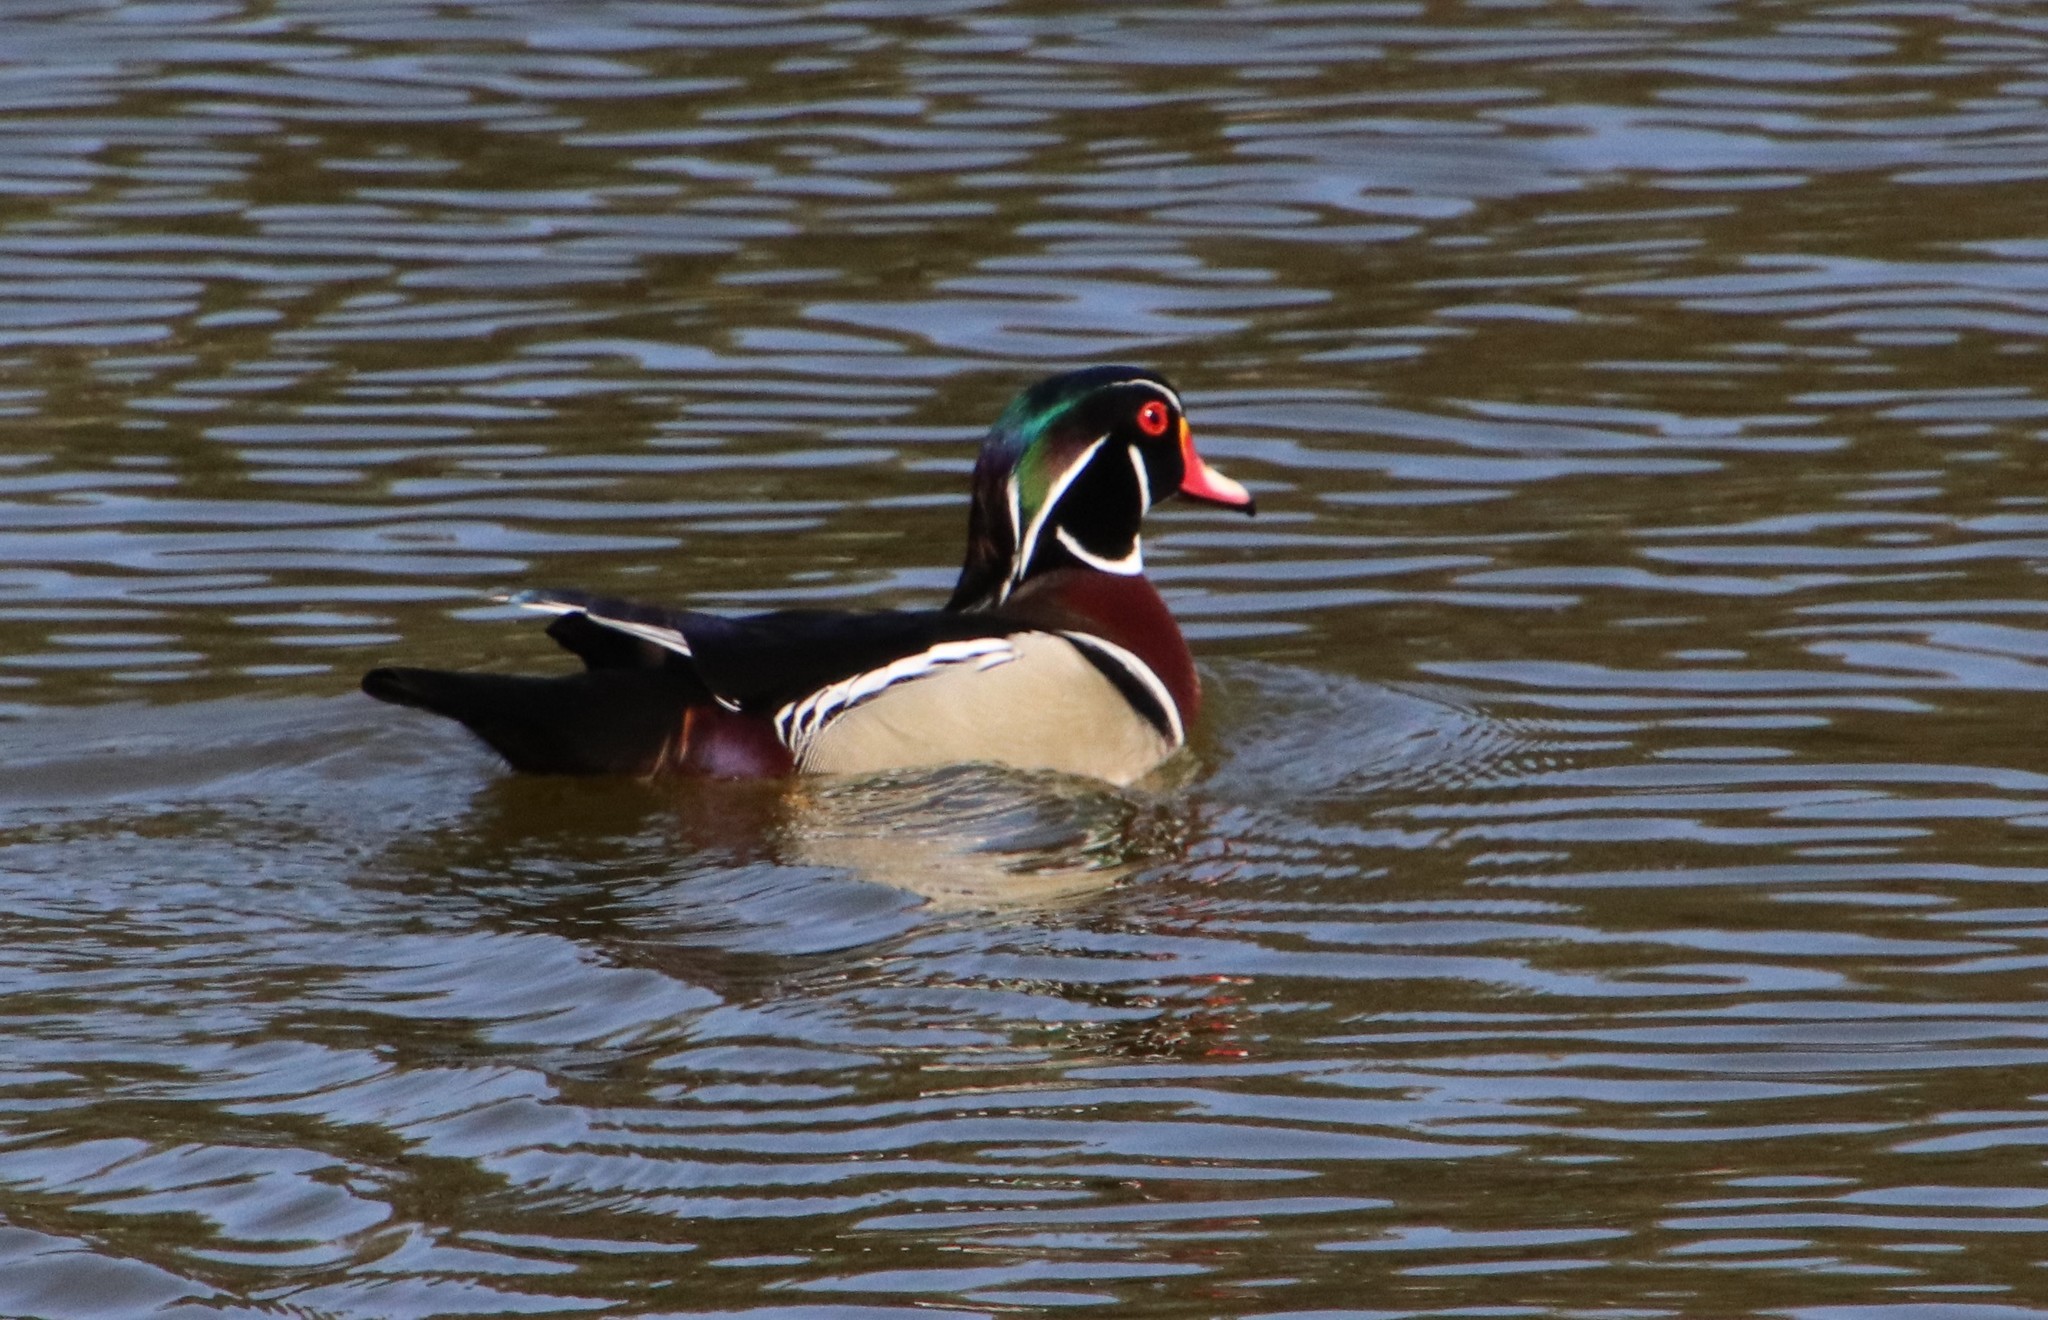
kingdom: Animalia
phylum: Chordata
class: Aves
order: Anseriformes
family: Anatidae
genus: Aix
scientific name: Aix sponsa
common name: Wood duck
